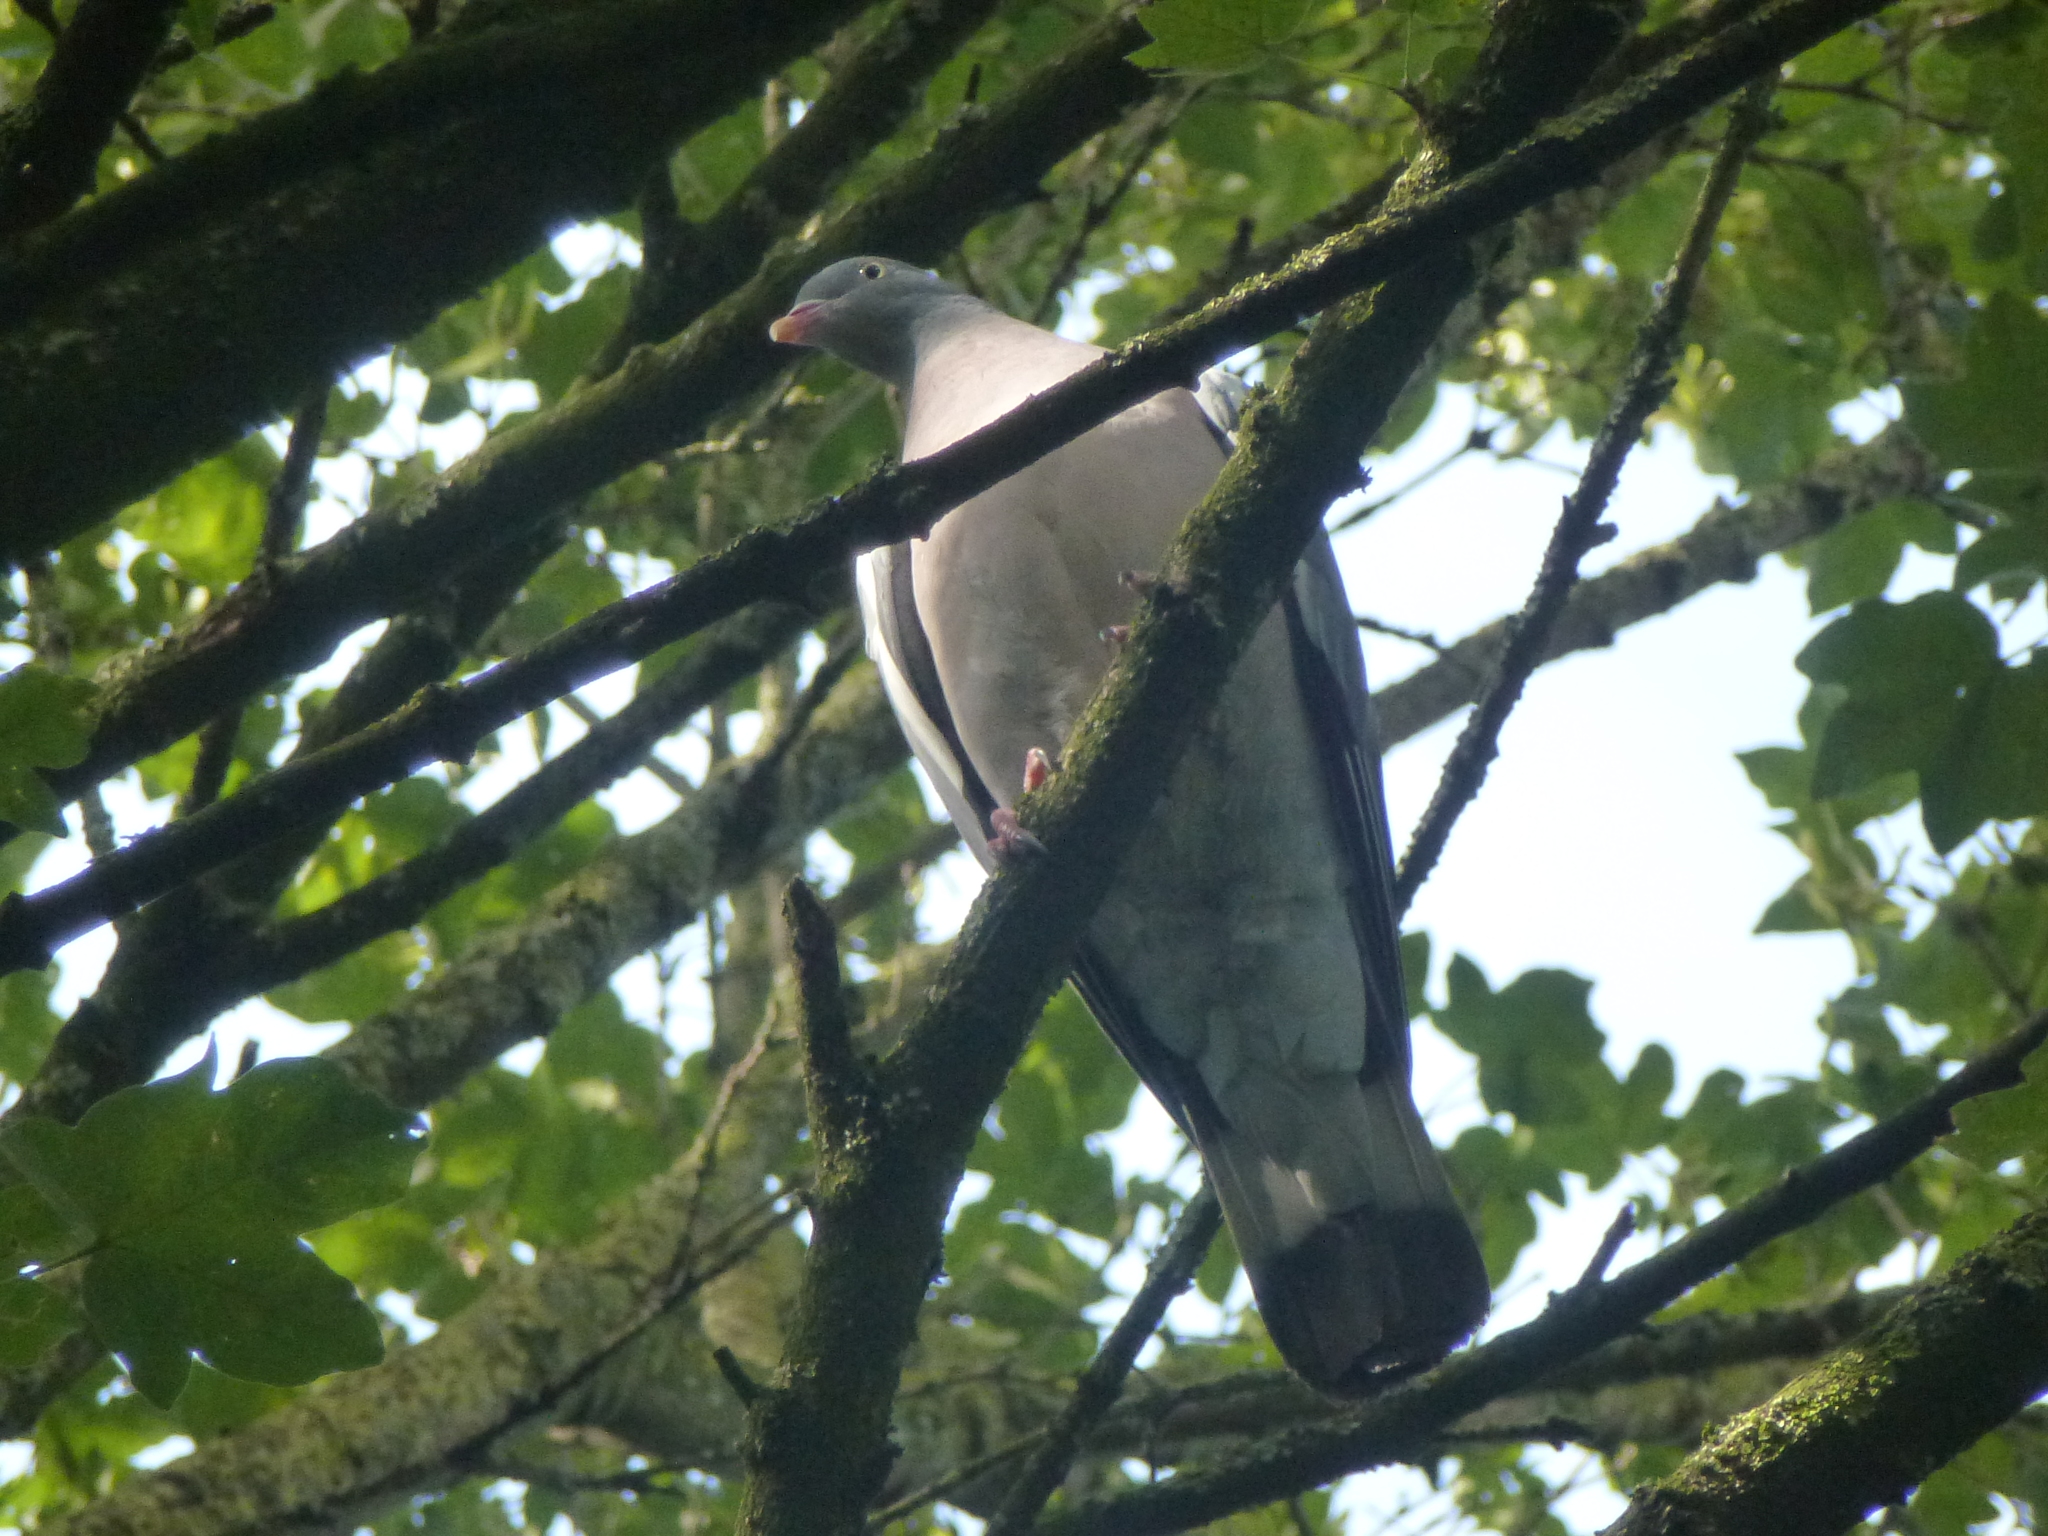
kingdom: Animalia
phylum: Chordata
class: Aves
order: Columbiformes
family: Columbidae
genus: Columba
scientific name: Columba palumbus
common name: Common wood pigeon
